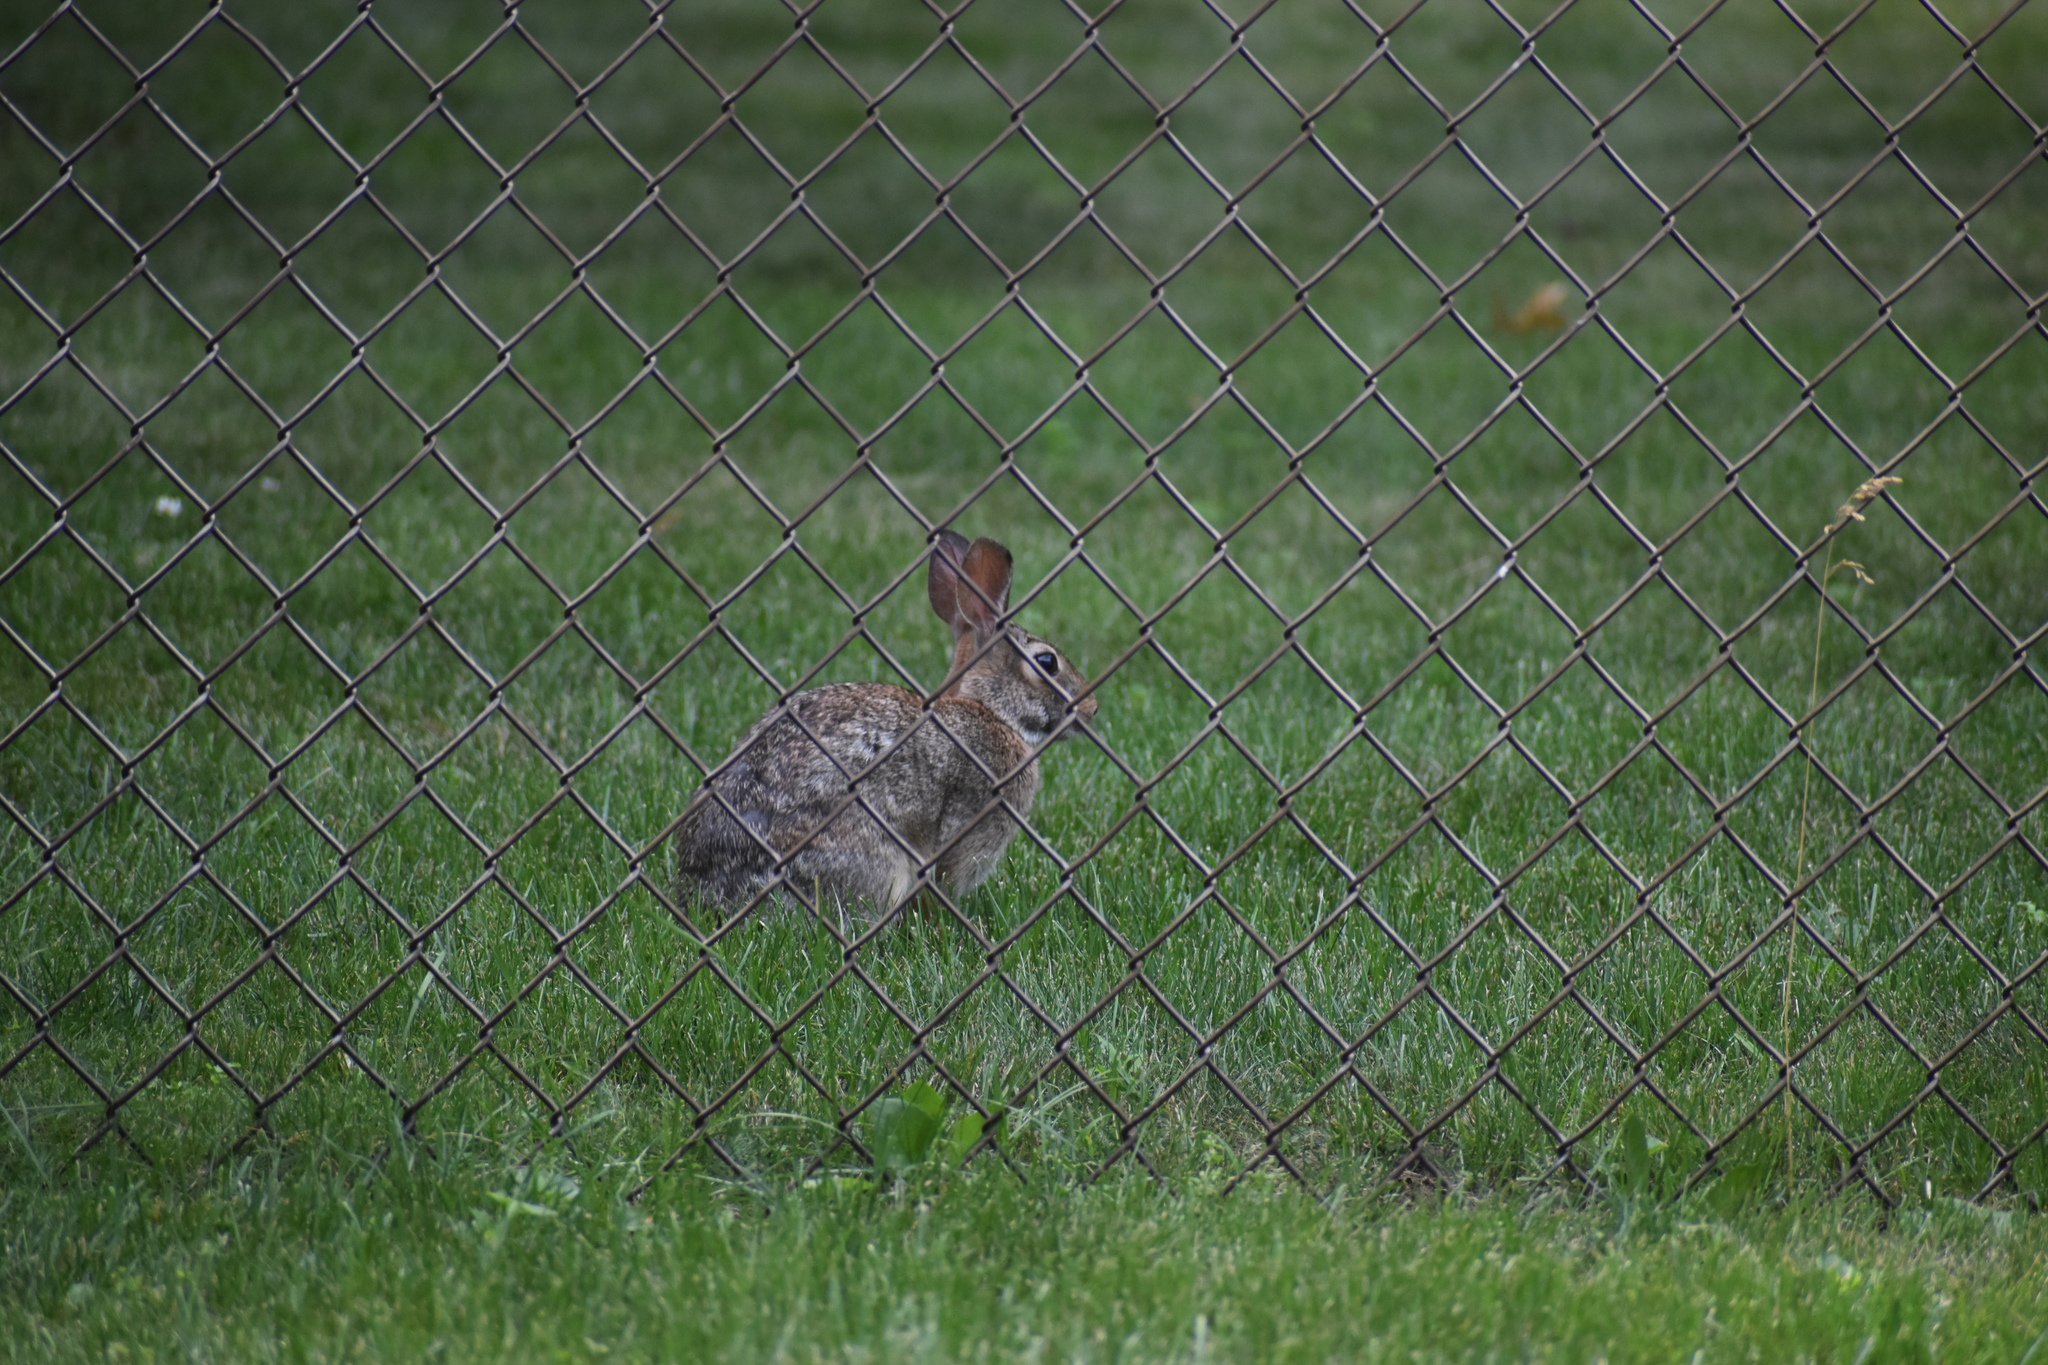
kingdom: Animalia
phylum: Chordata
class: Mammalia
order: Lagomorpha
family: Leporidae
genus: Sylvilagus
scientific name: Sylvilagus floridanus
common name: Eastern cottontail
